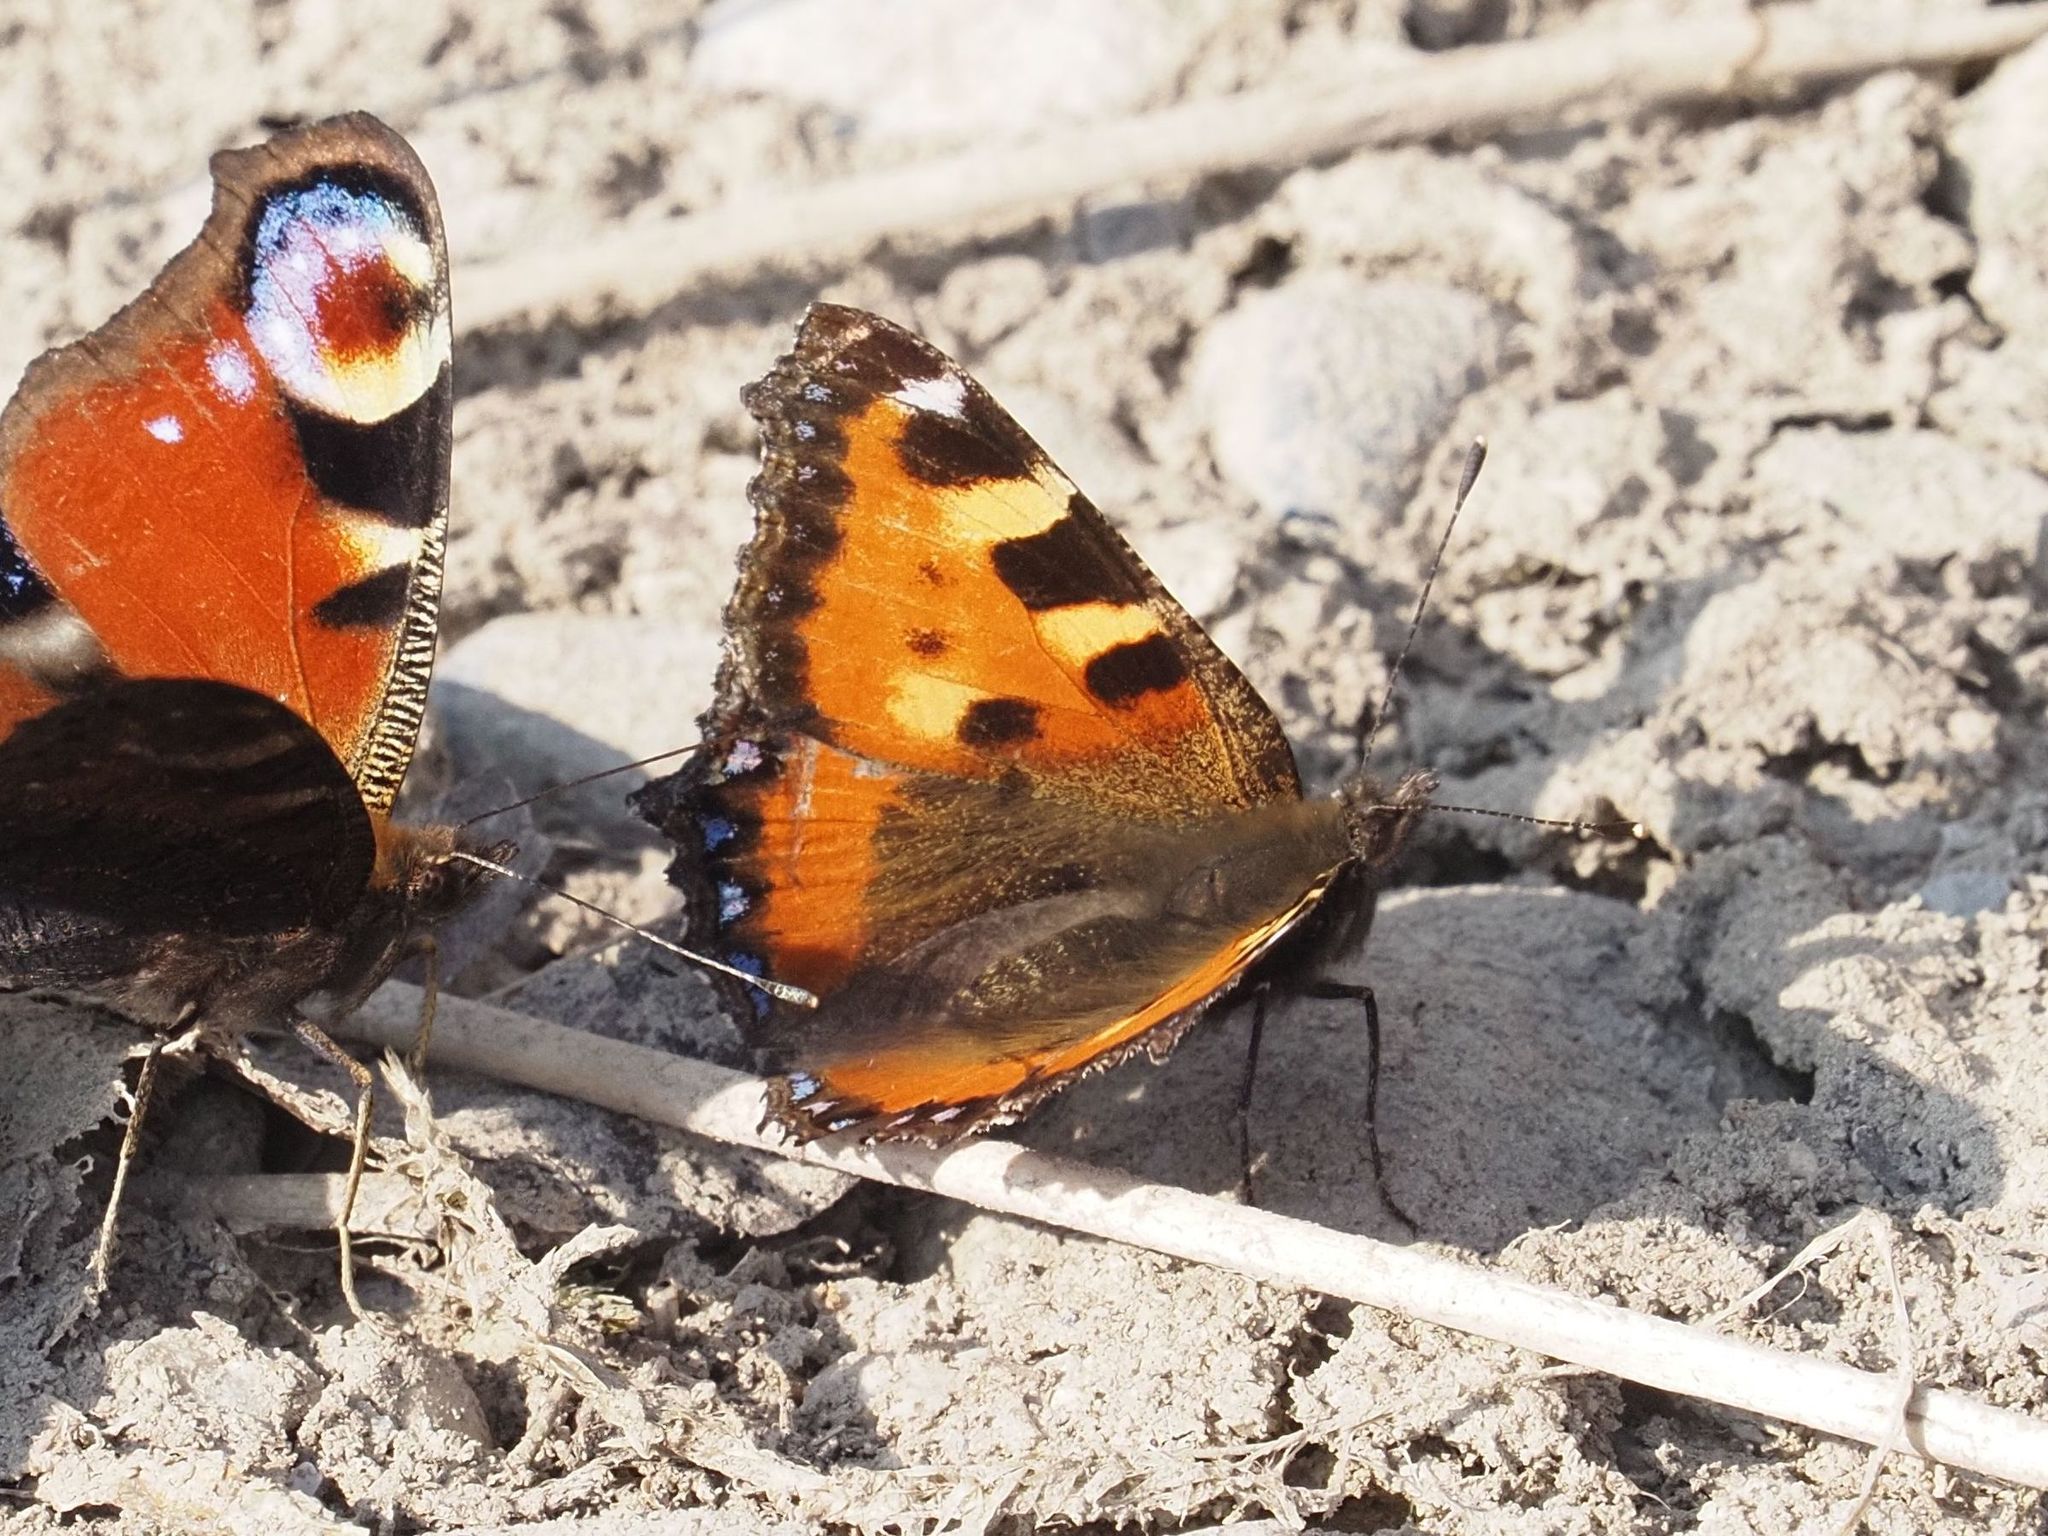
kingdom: Animalia
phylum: Arthropoda
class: Insecta
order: Lepidoptera
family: Nymphalidae
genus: Aglais
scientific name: Aglais urticae
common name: Small tortoiseshell
